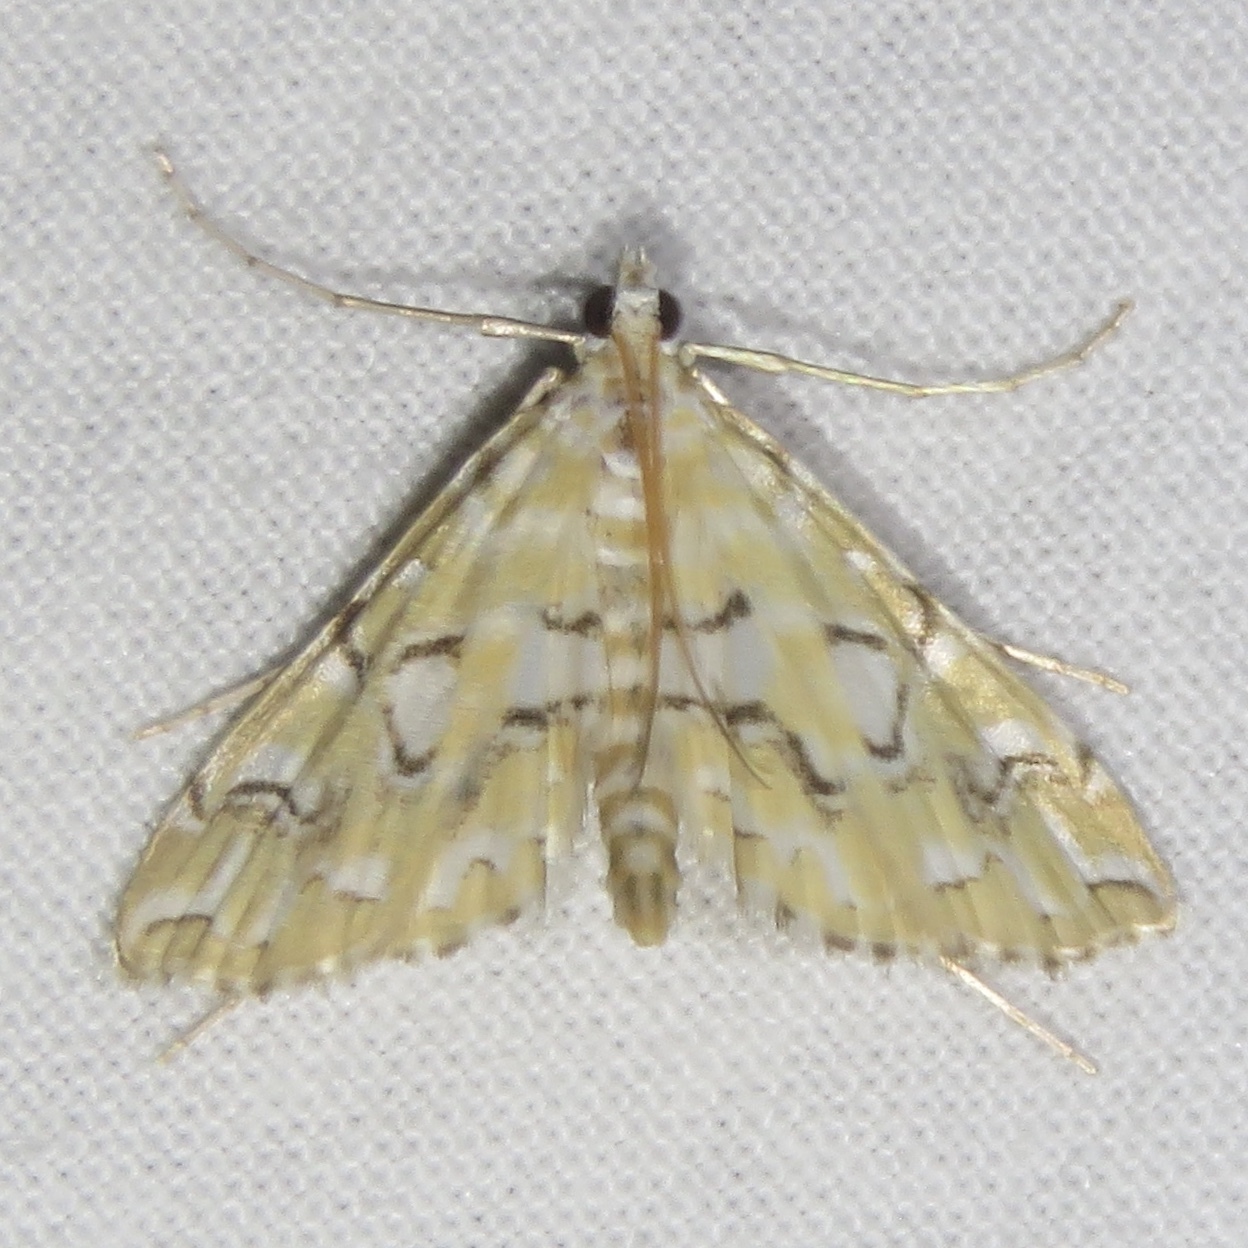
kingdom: Animalia
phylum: Arthropoda
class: Insecta
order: Lepidoptera
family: Crambidae
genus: Elophila
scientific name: Elophila icciusalis
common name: Pondside pyralid moth
